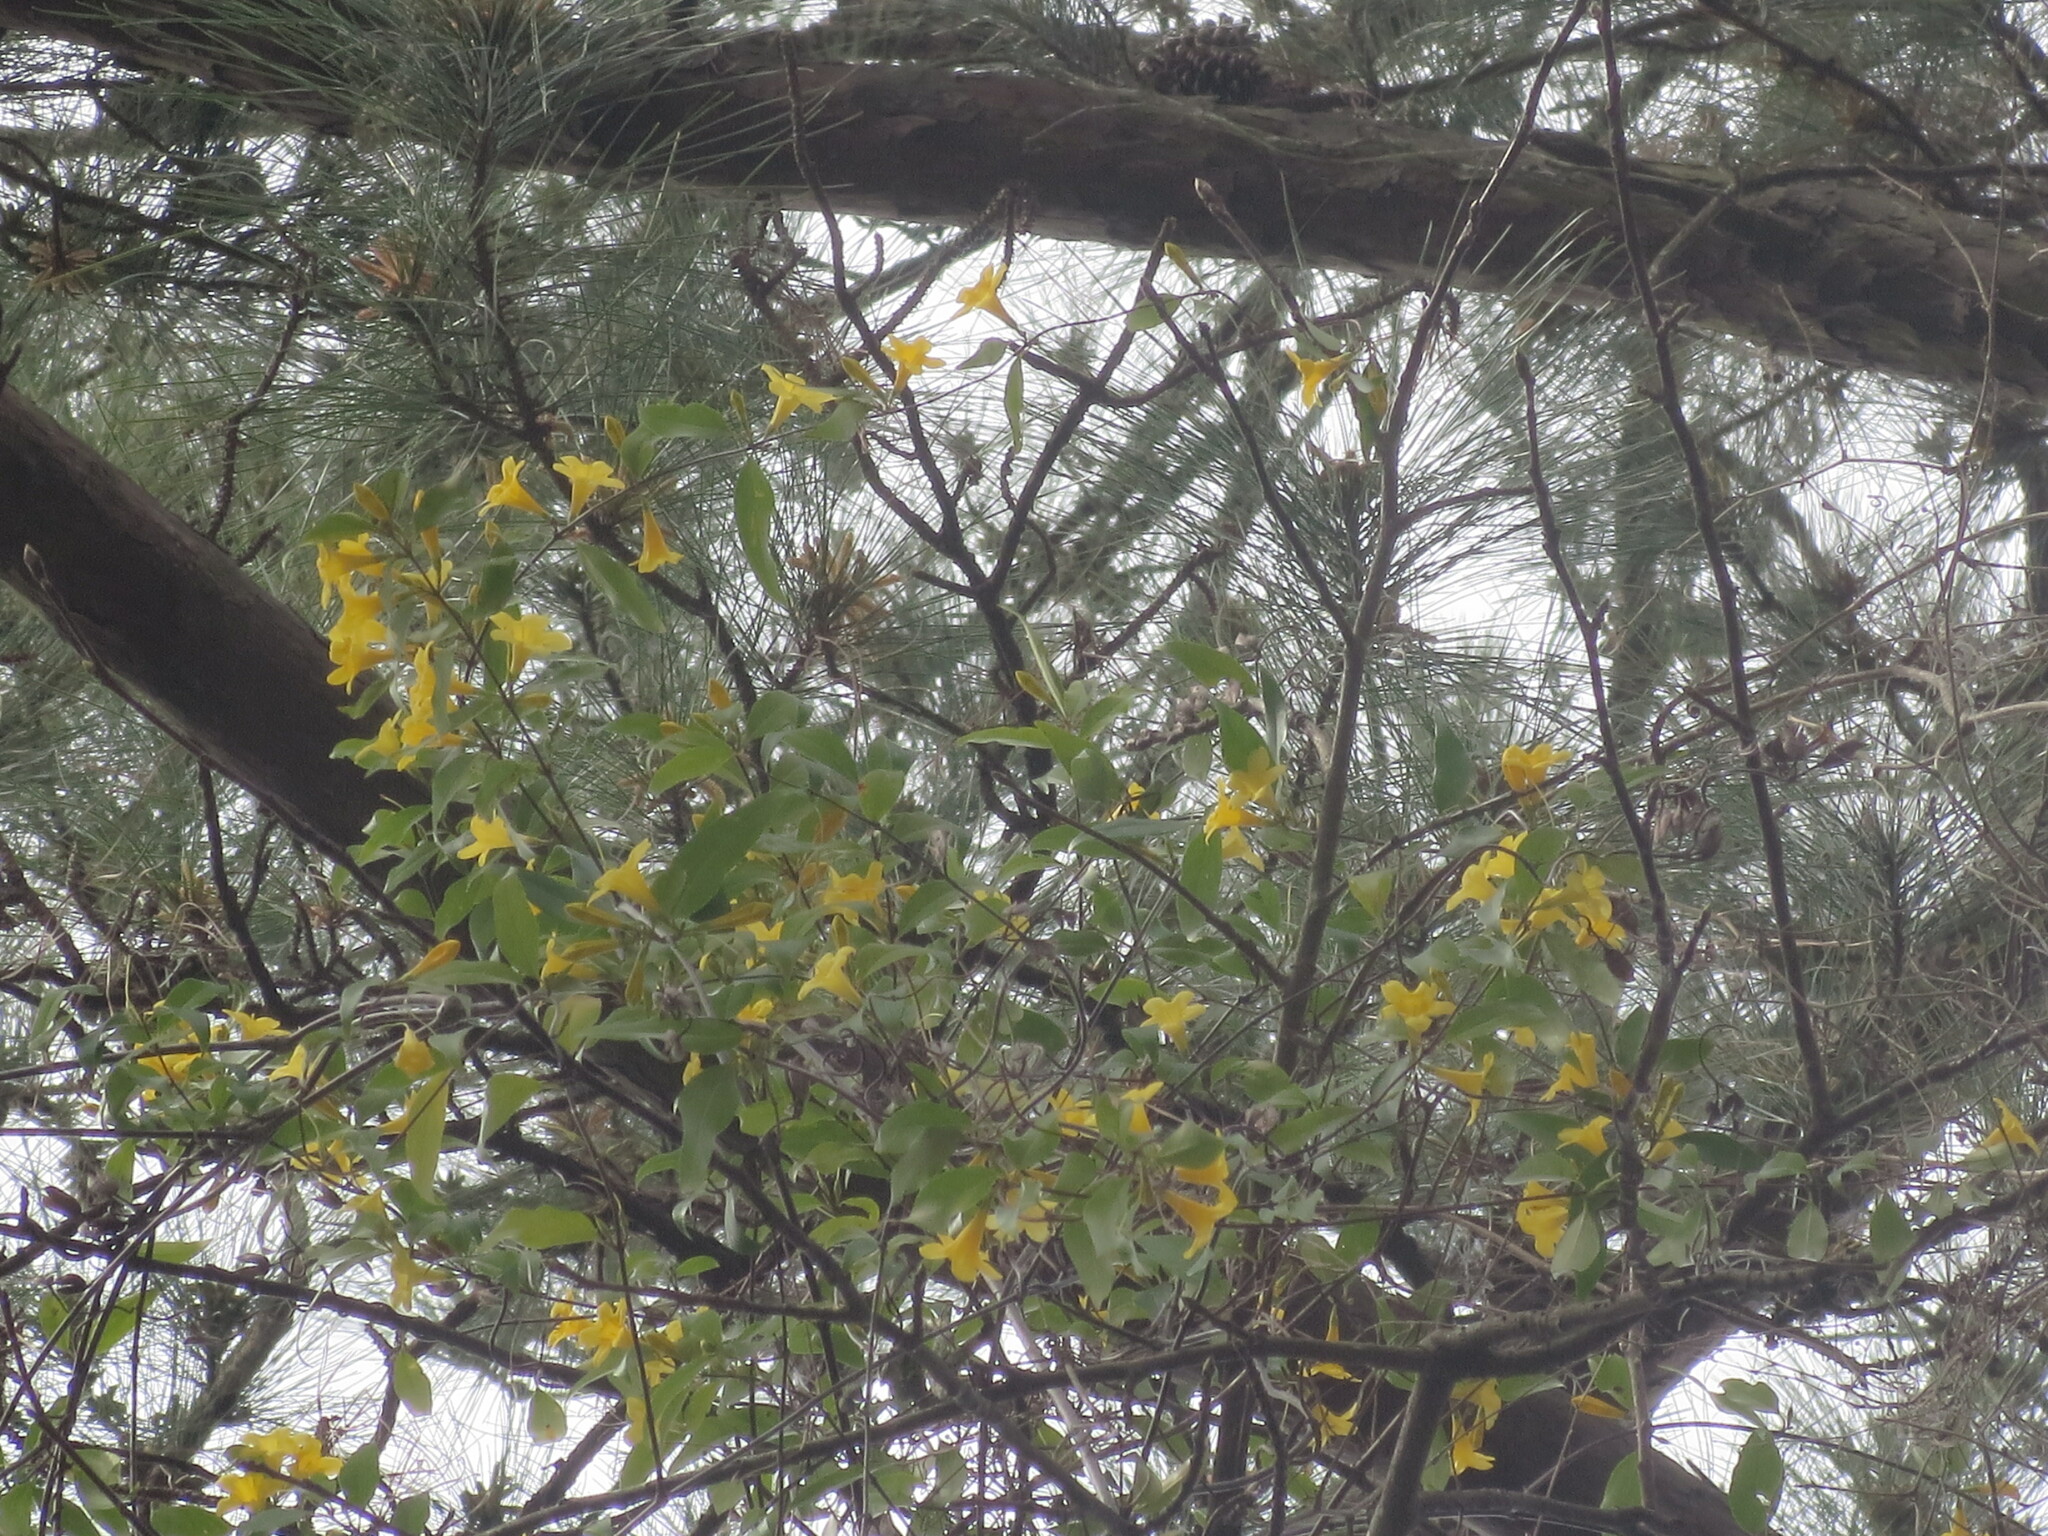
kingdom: Plantae
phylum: Tracheophyta
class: Magnoliopsida
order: Gentianales
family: Gelsemiaceae
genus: Gelsemium
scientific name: Gelsemium sempervirens
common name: Carolina-jasmine
